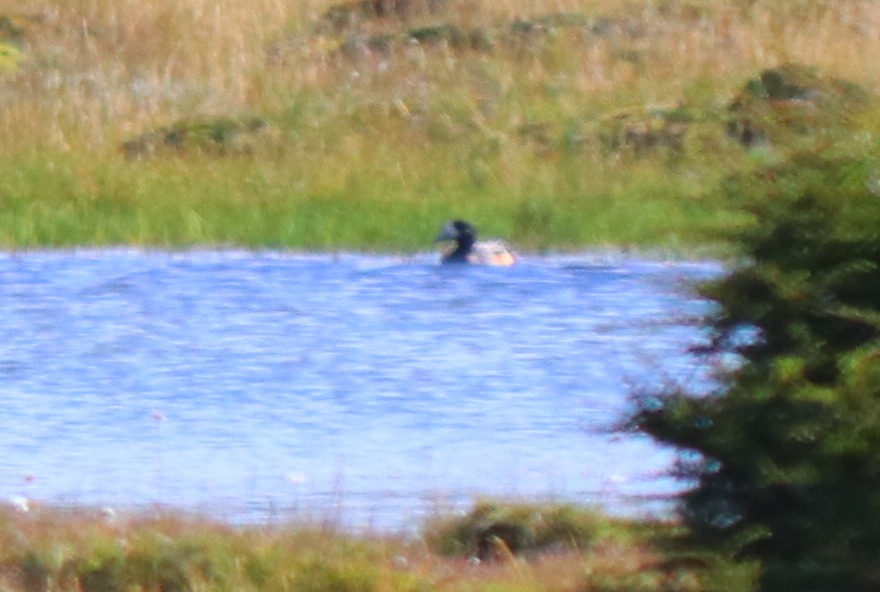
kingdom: Animalia
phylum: Chordata
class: Aves
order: Anseriformes
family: Anatidae
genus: Mareca
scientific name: Mareca sibilatrix
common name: Chiloe wigeon
